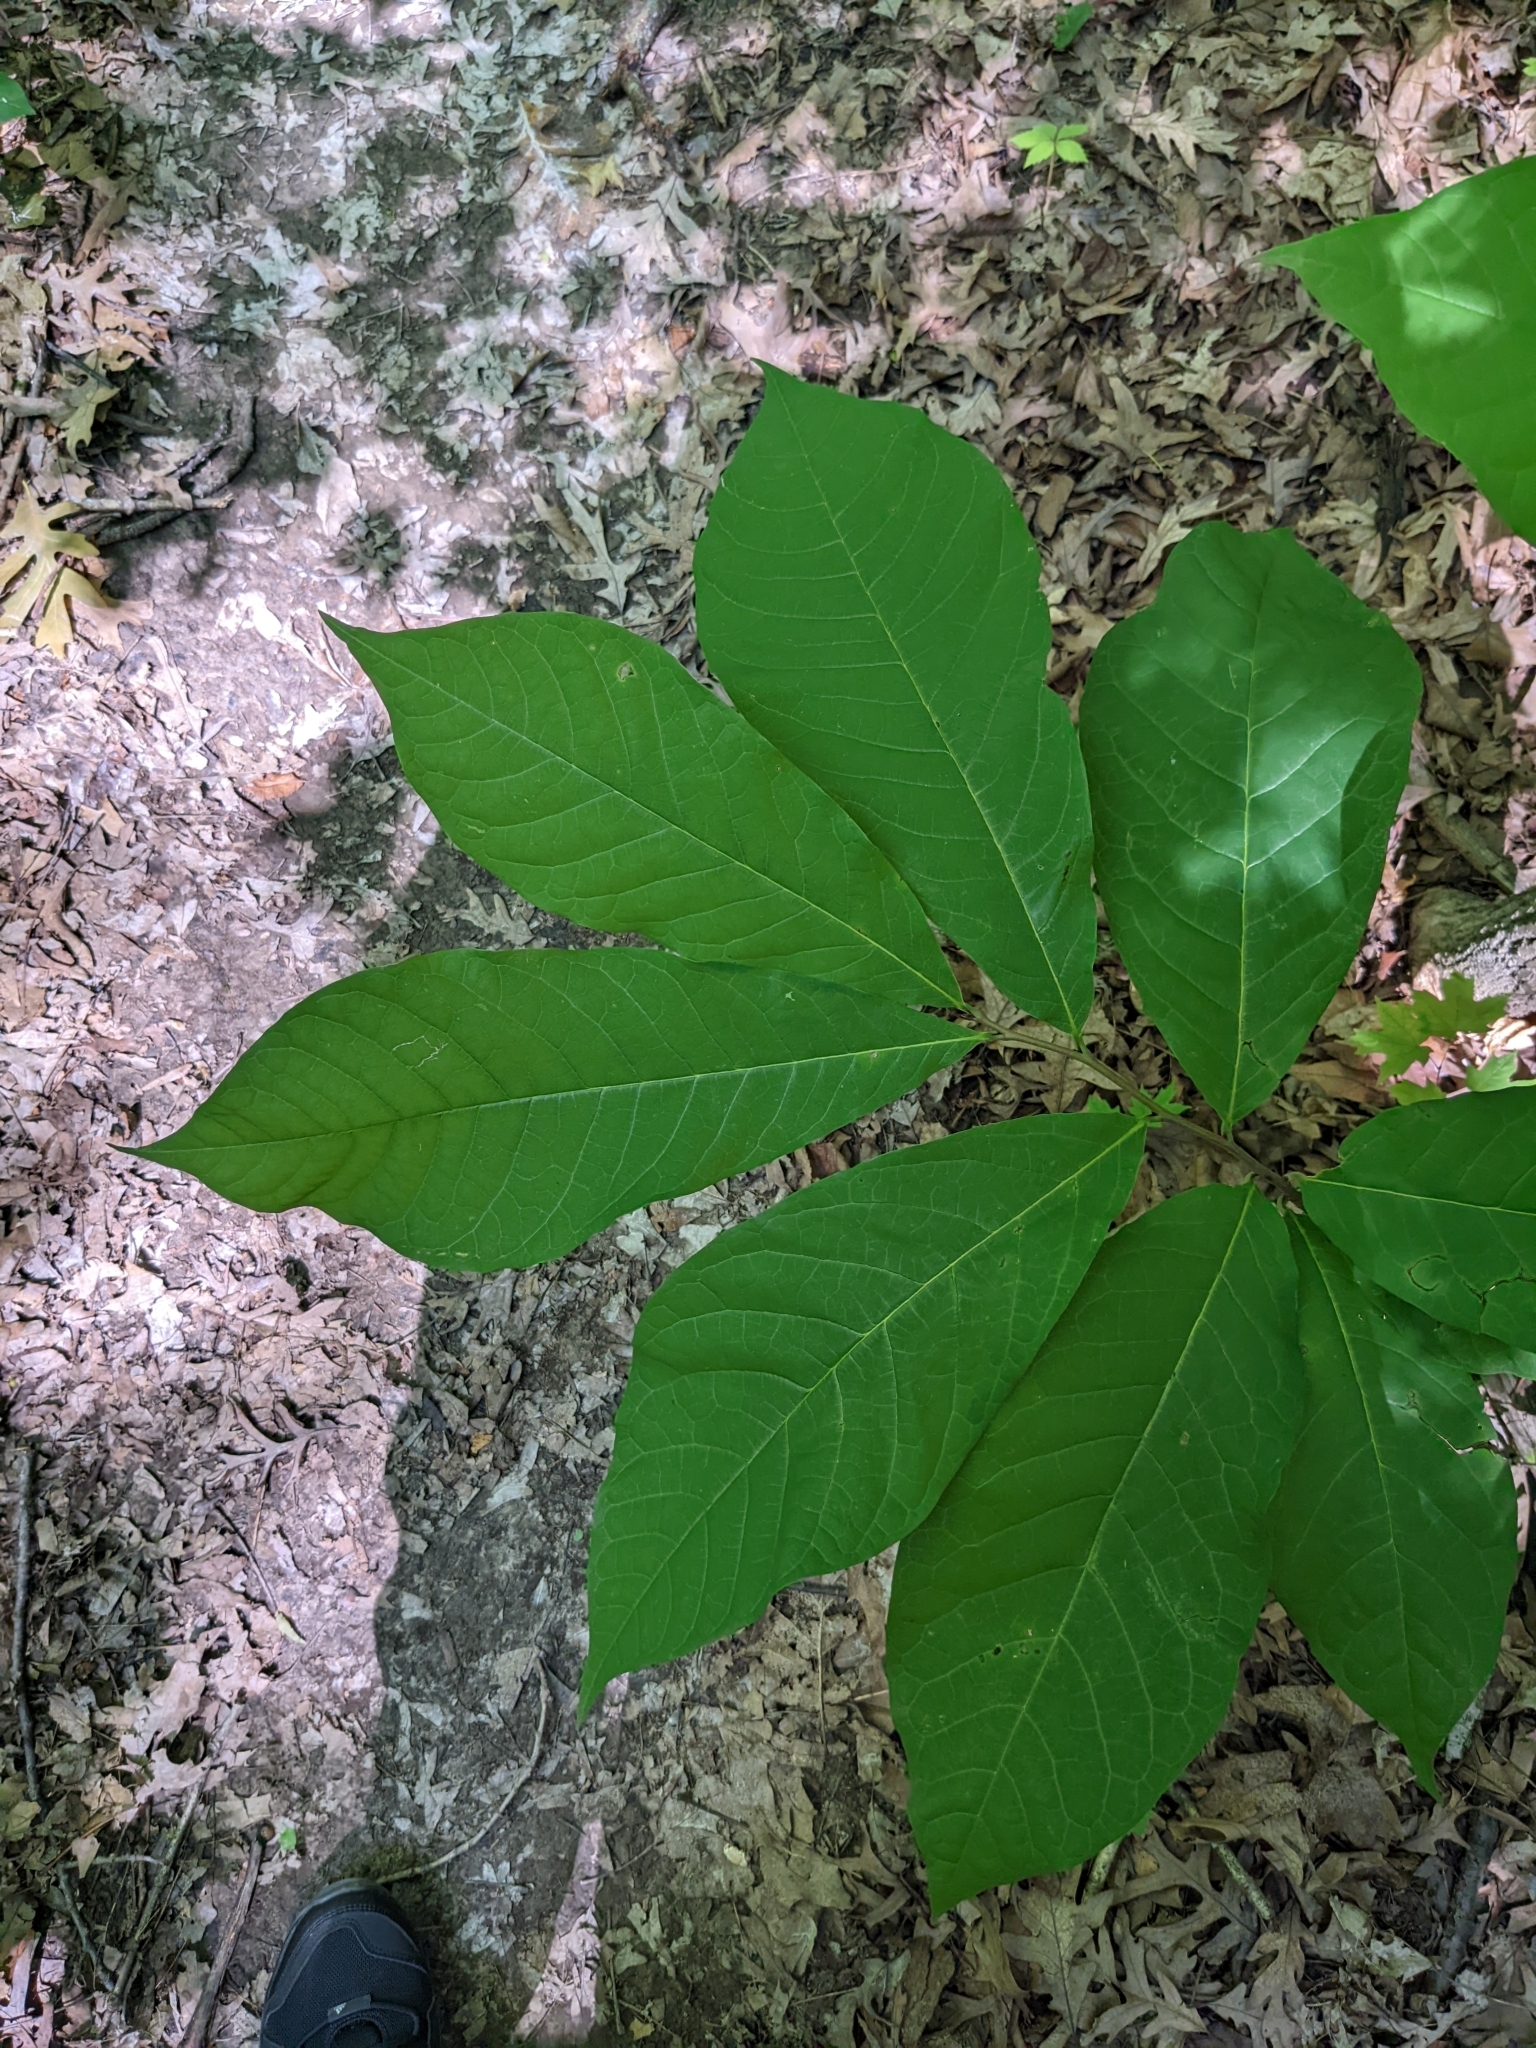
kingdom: Plantae
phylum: Tracheophyta
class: Magnoliopsida
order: Magnoliales
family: Annonaceae
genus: Asimina
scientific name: Asimina triloba
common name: Dog-banana
